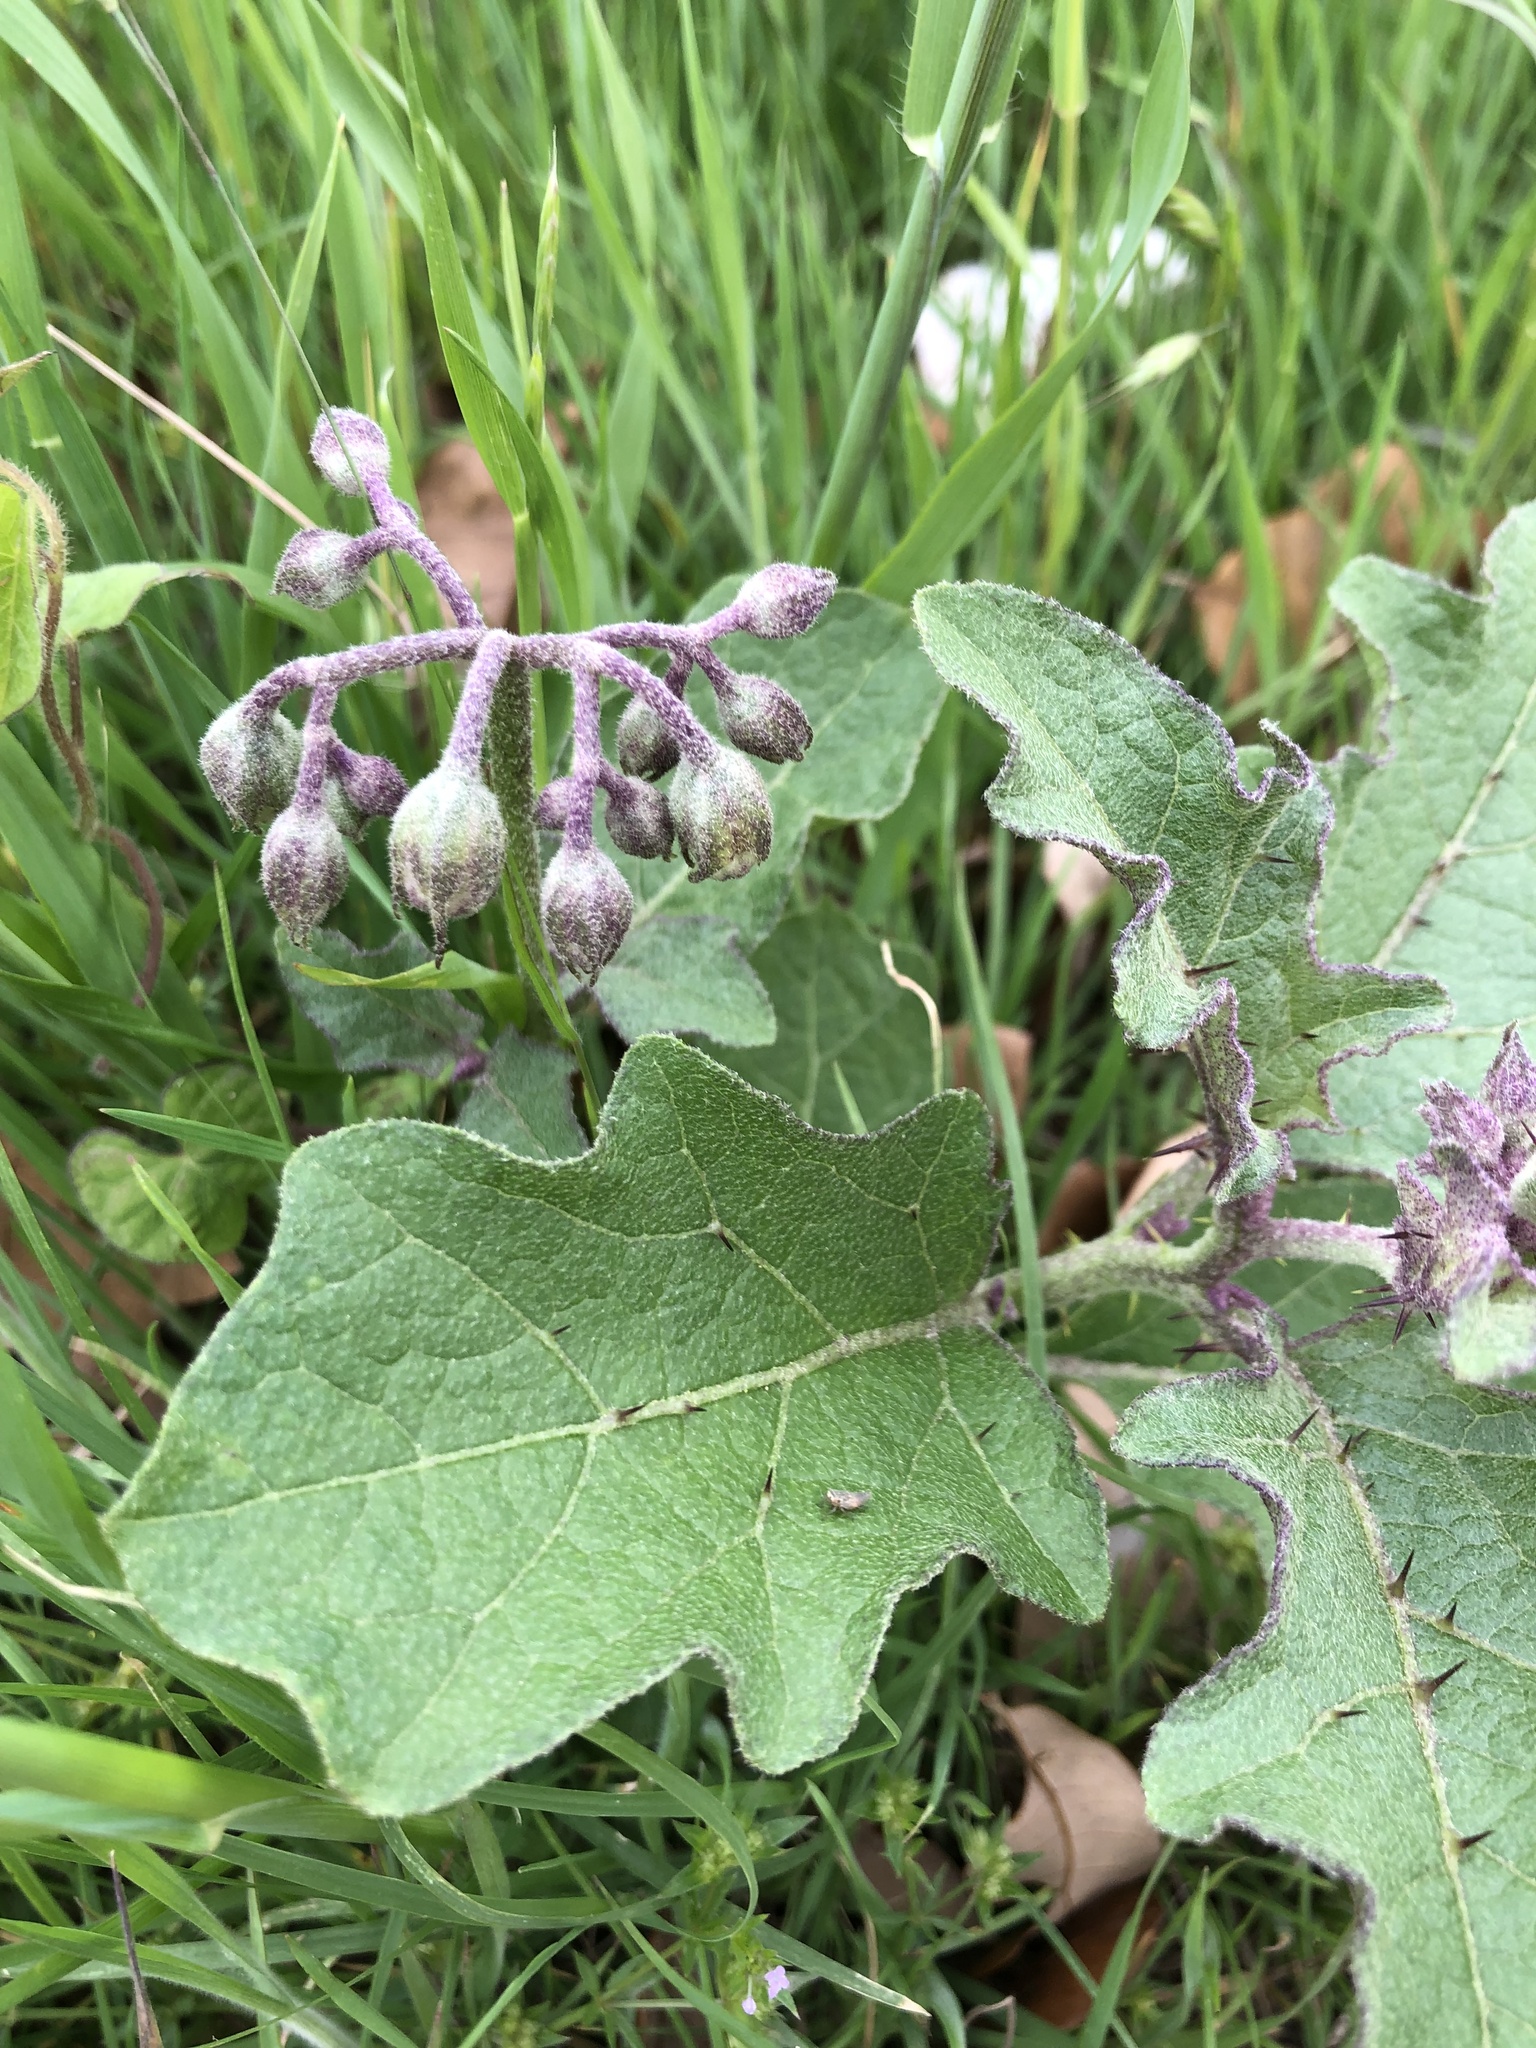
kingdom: Plantae
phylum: Tracheophyta
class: Magnoliopsida
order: Solanales
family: Solanaceae
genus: Solanum
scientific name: Solanum dimidiatum
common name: Carolina horse-nettle
